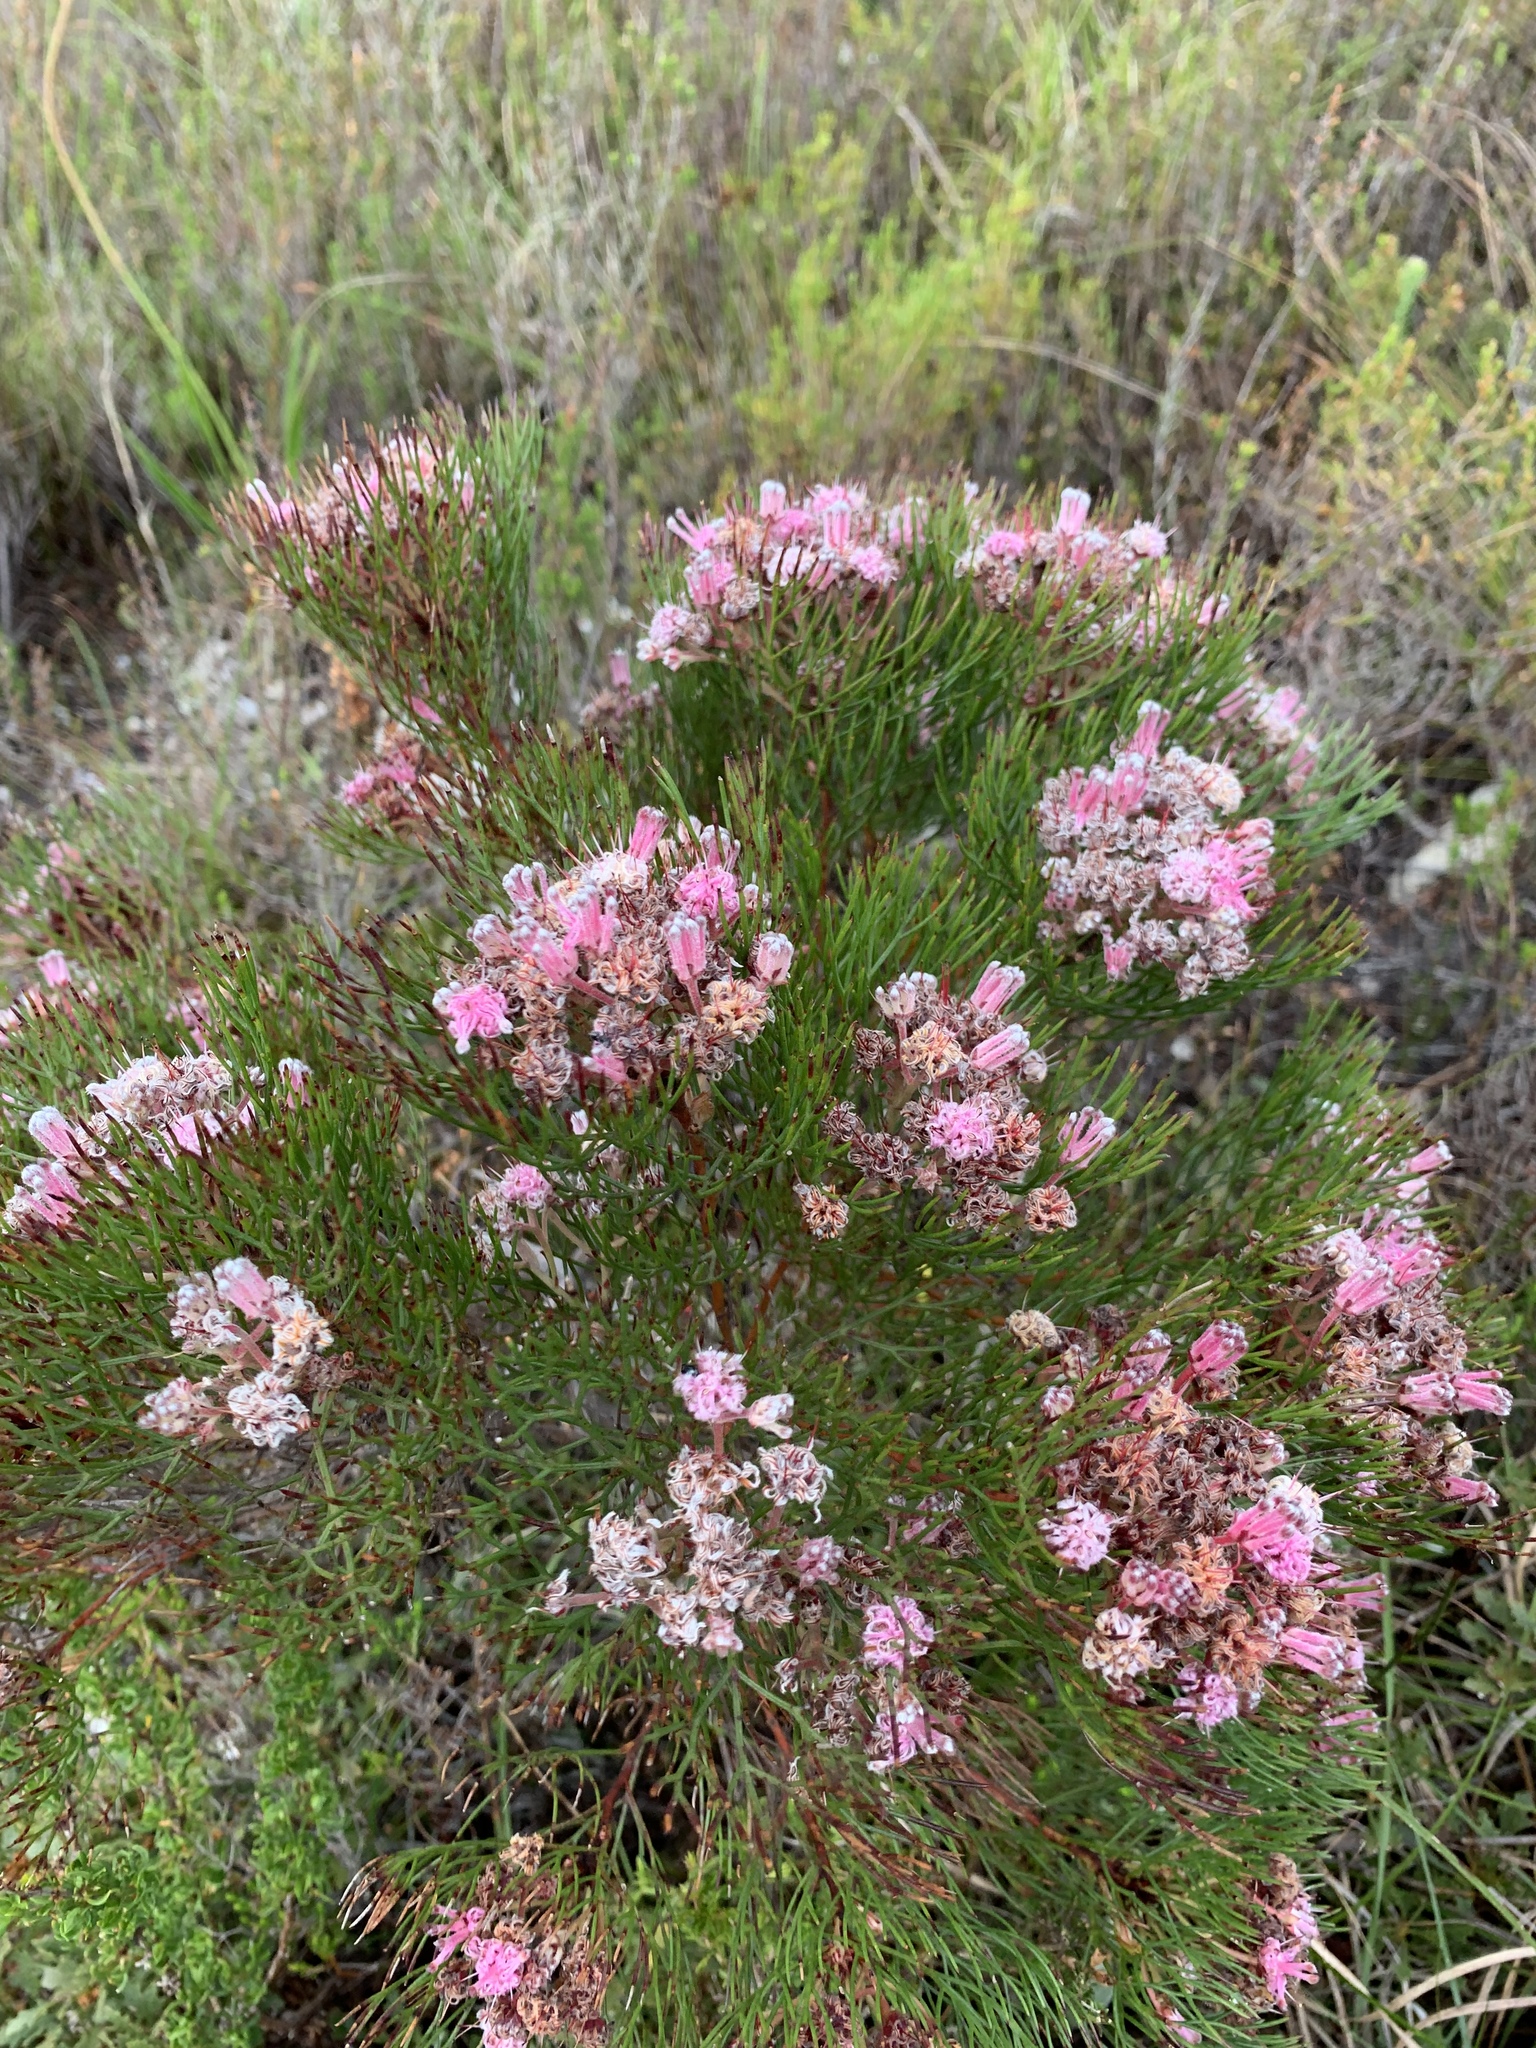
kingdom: Plantae
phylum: Tracheophyta
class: Magnoliopsida
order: Proteales
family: Proteaceae
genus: Serruria
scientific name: Serruria fasciflora
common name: Common pin spiderhead
